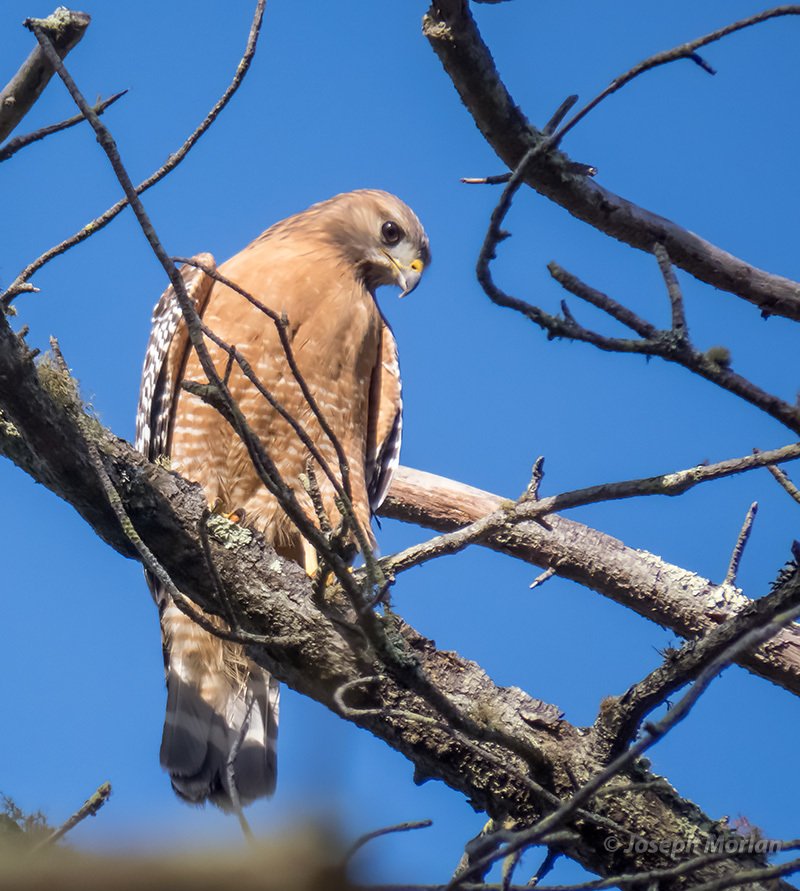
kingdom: Animalia
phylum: Chordata
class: Aves
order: Accipitriformes
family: Accipitridae
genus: Buteo
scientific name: Buteo lineatus
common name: Red-shouldered hawk
